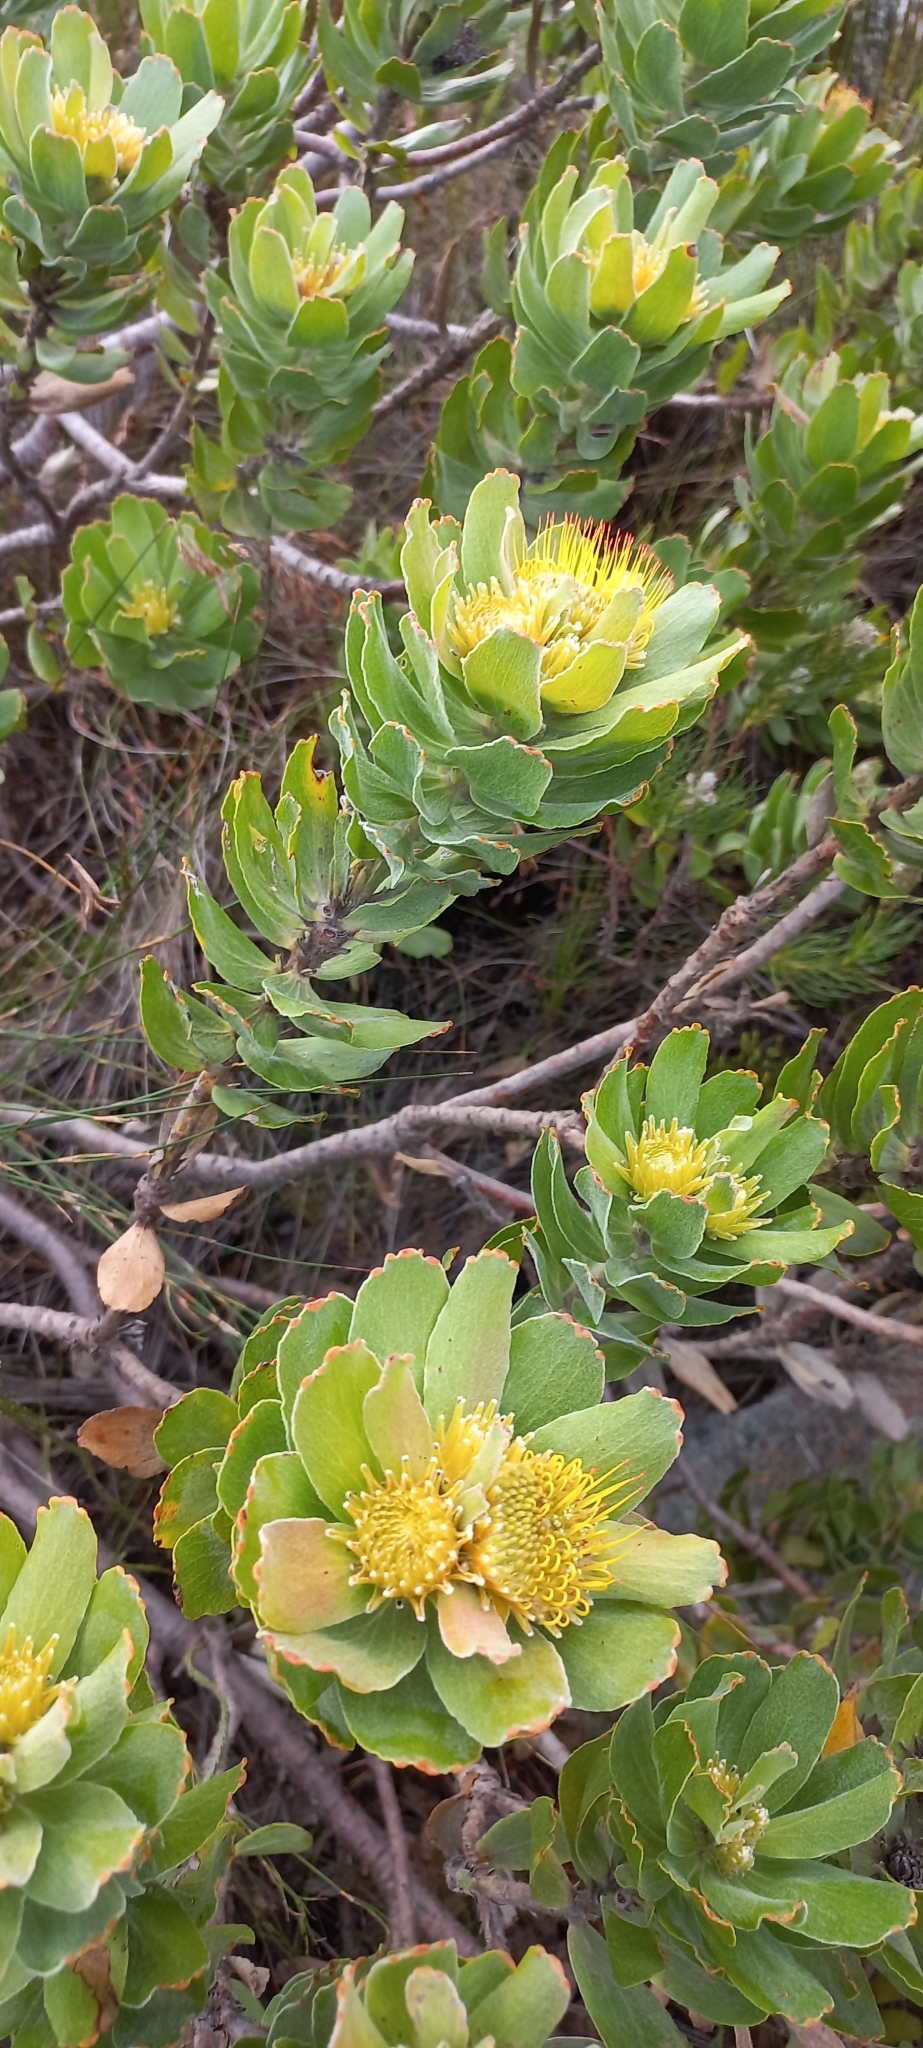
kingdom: Plantae
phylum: Tracheophyta
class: Magnoliopsida
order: Proteales
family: Proteaceae
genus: Leucospermum
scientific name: Leucospermum oleifolium
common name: Matches
